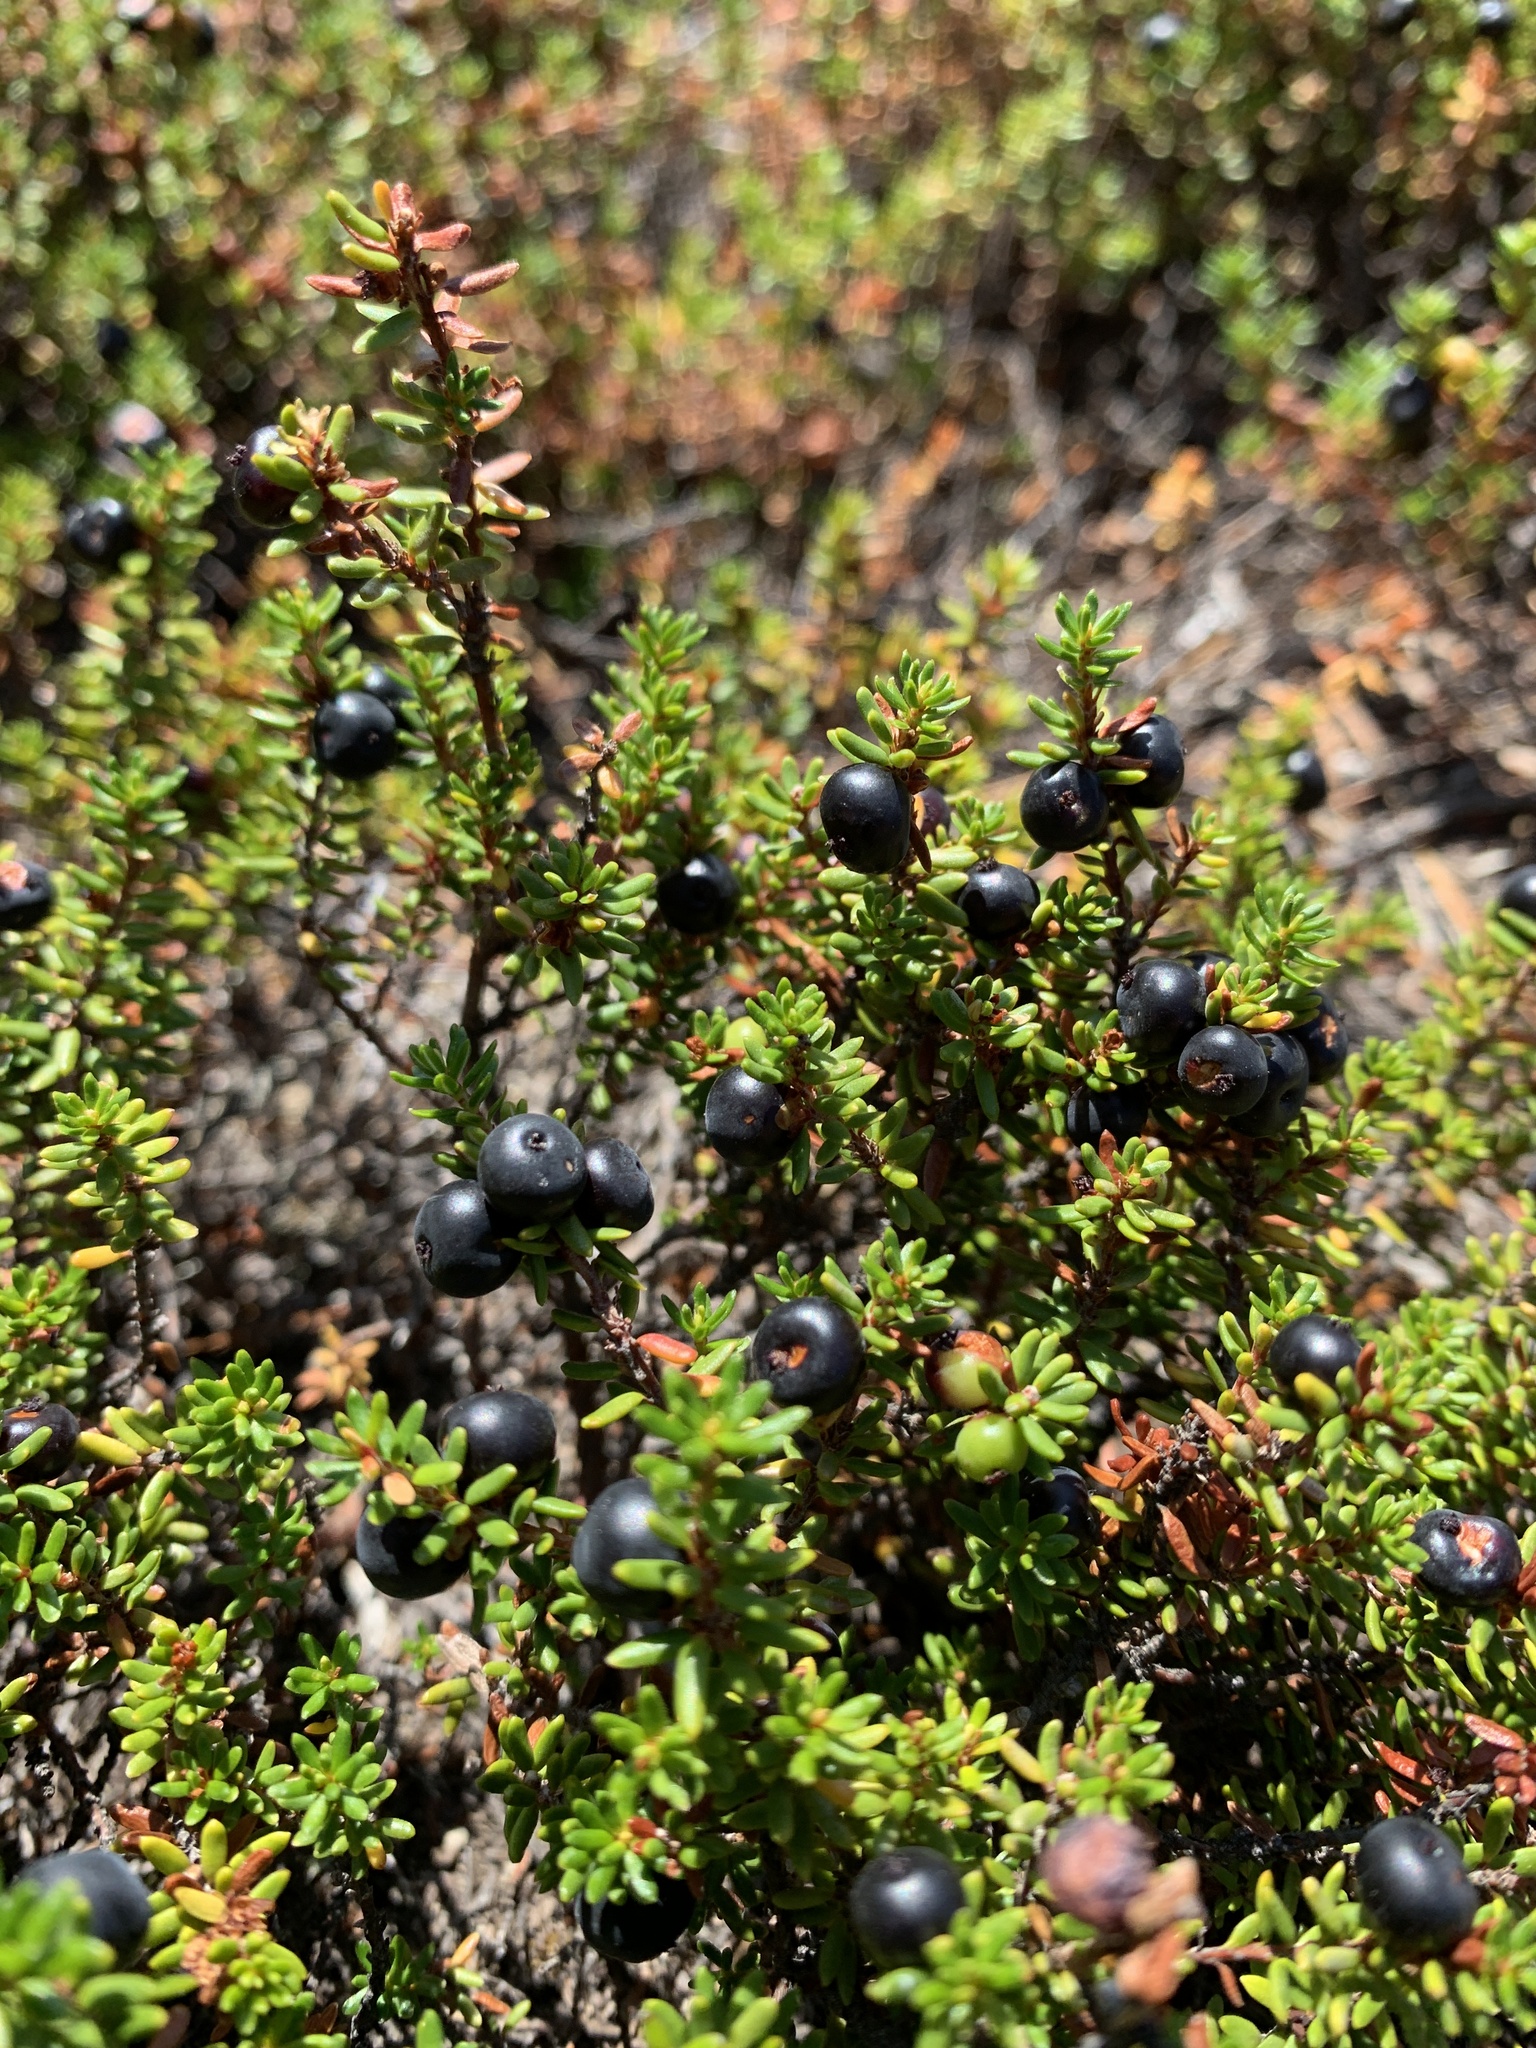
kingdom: Plantae
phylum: Tracheophyta
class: Magnoliopsida
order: Ericales
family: Ericaceae
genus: Empetrum
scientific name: Empetrum nigrum
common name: Black crowberry
